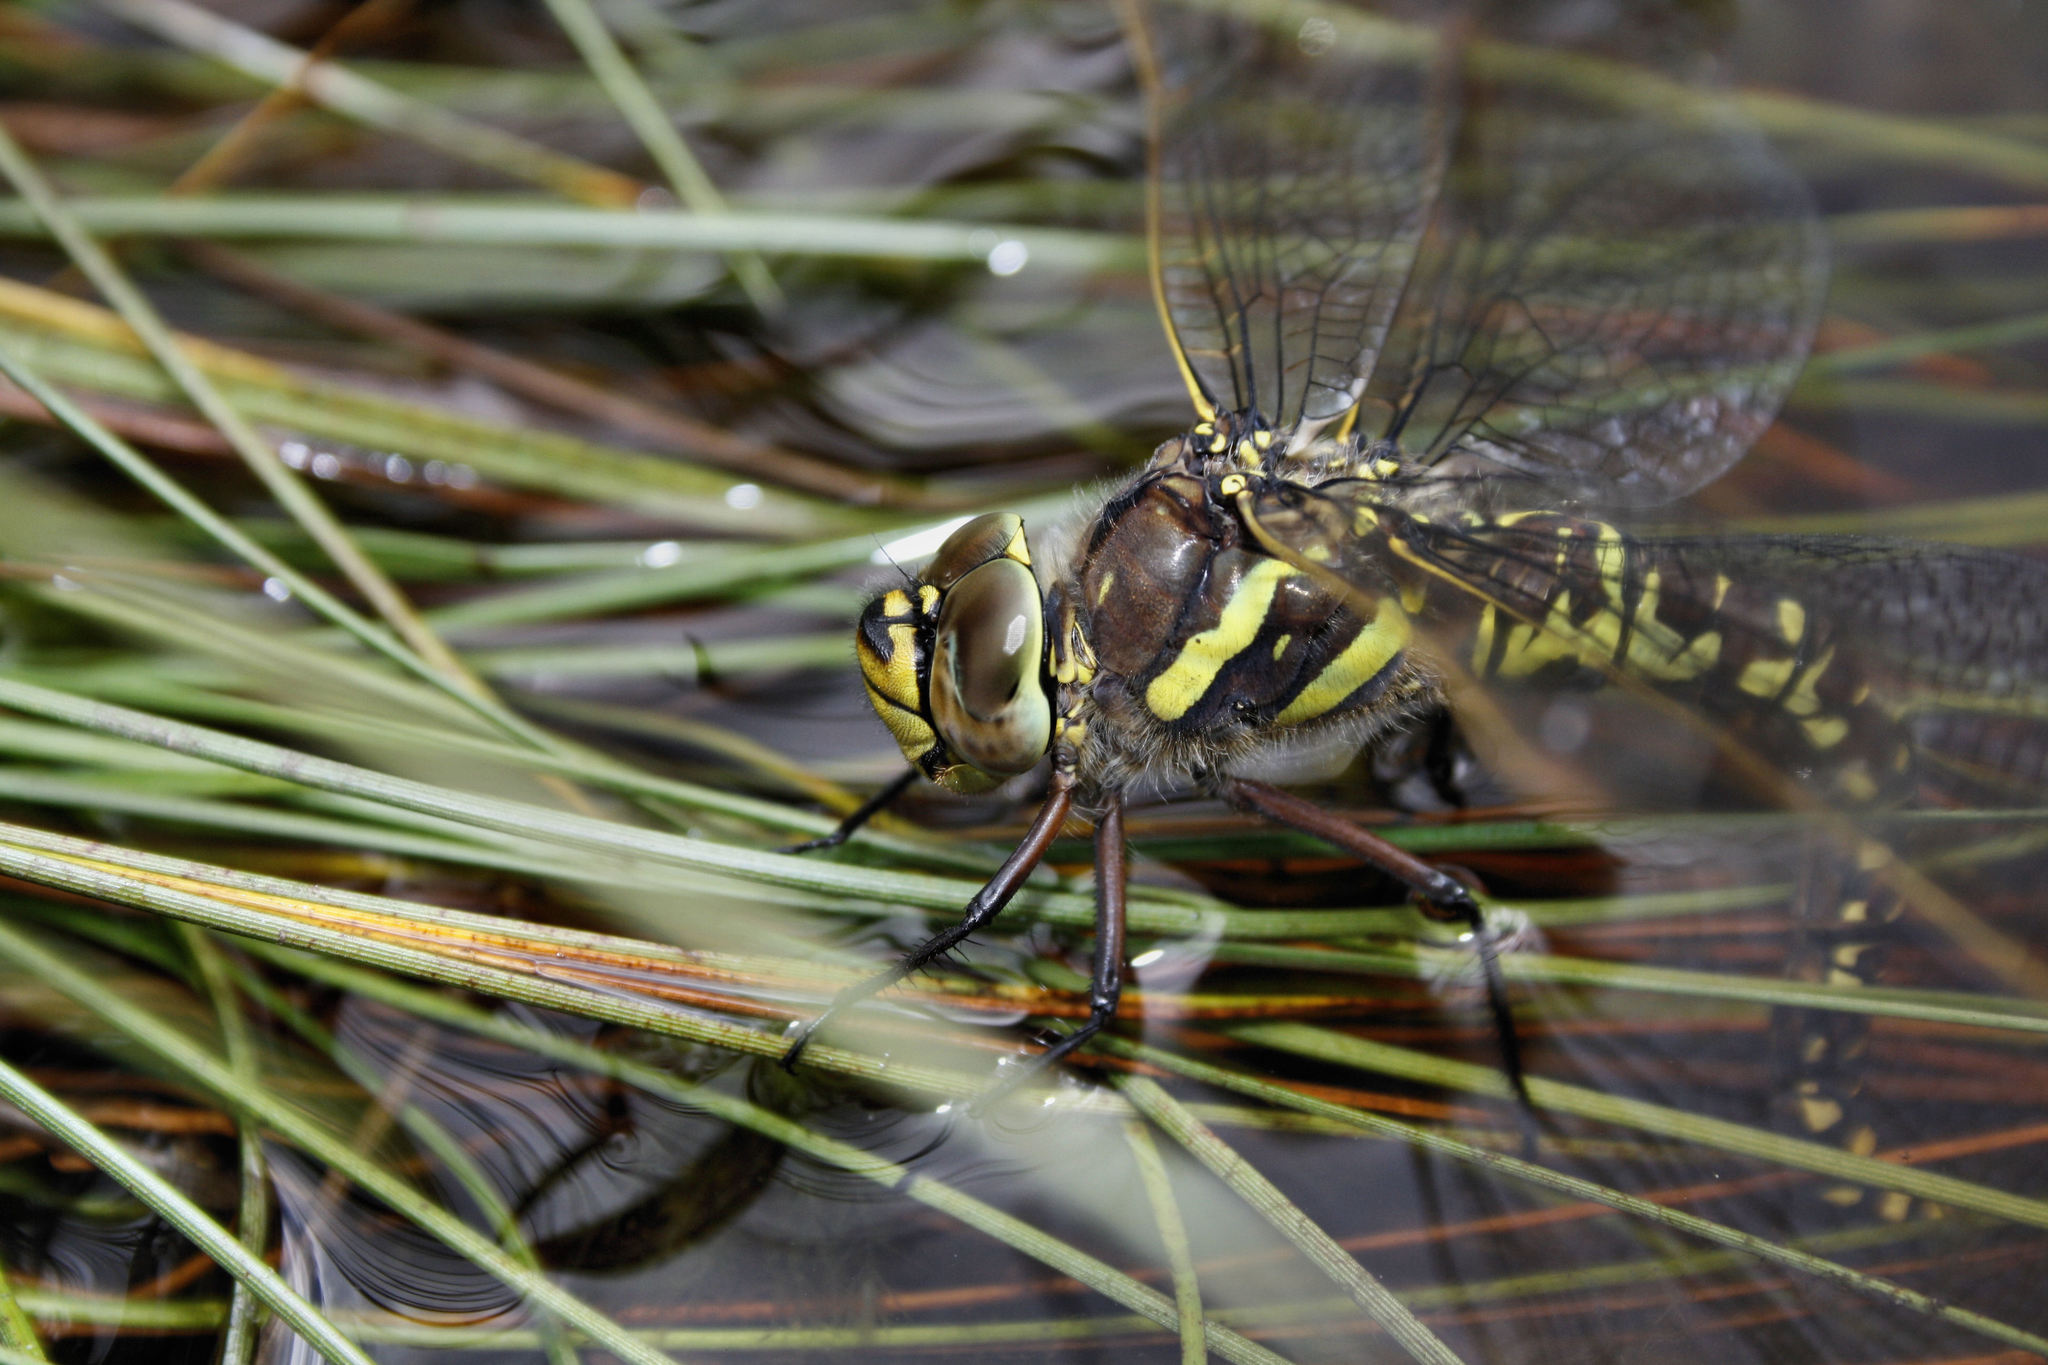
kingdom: Animalia
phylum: Arthropoda
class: Insecta
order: Odonata
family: Aeshnidae
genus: Aeshna
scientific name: Aeshna juncea
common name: Moorland hawker
